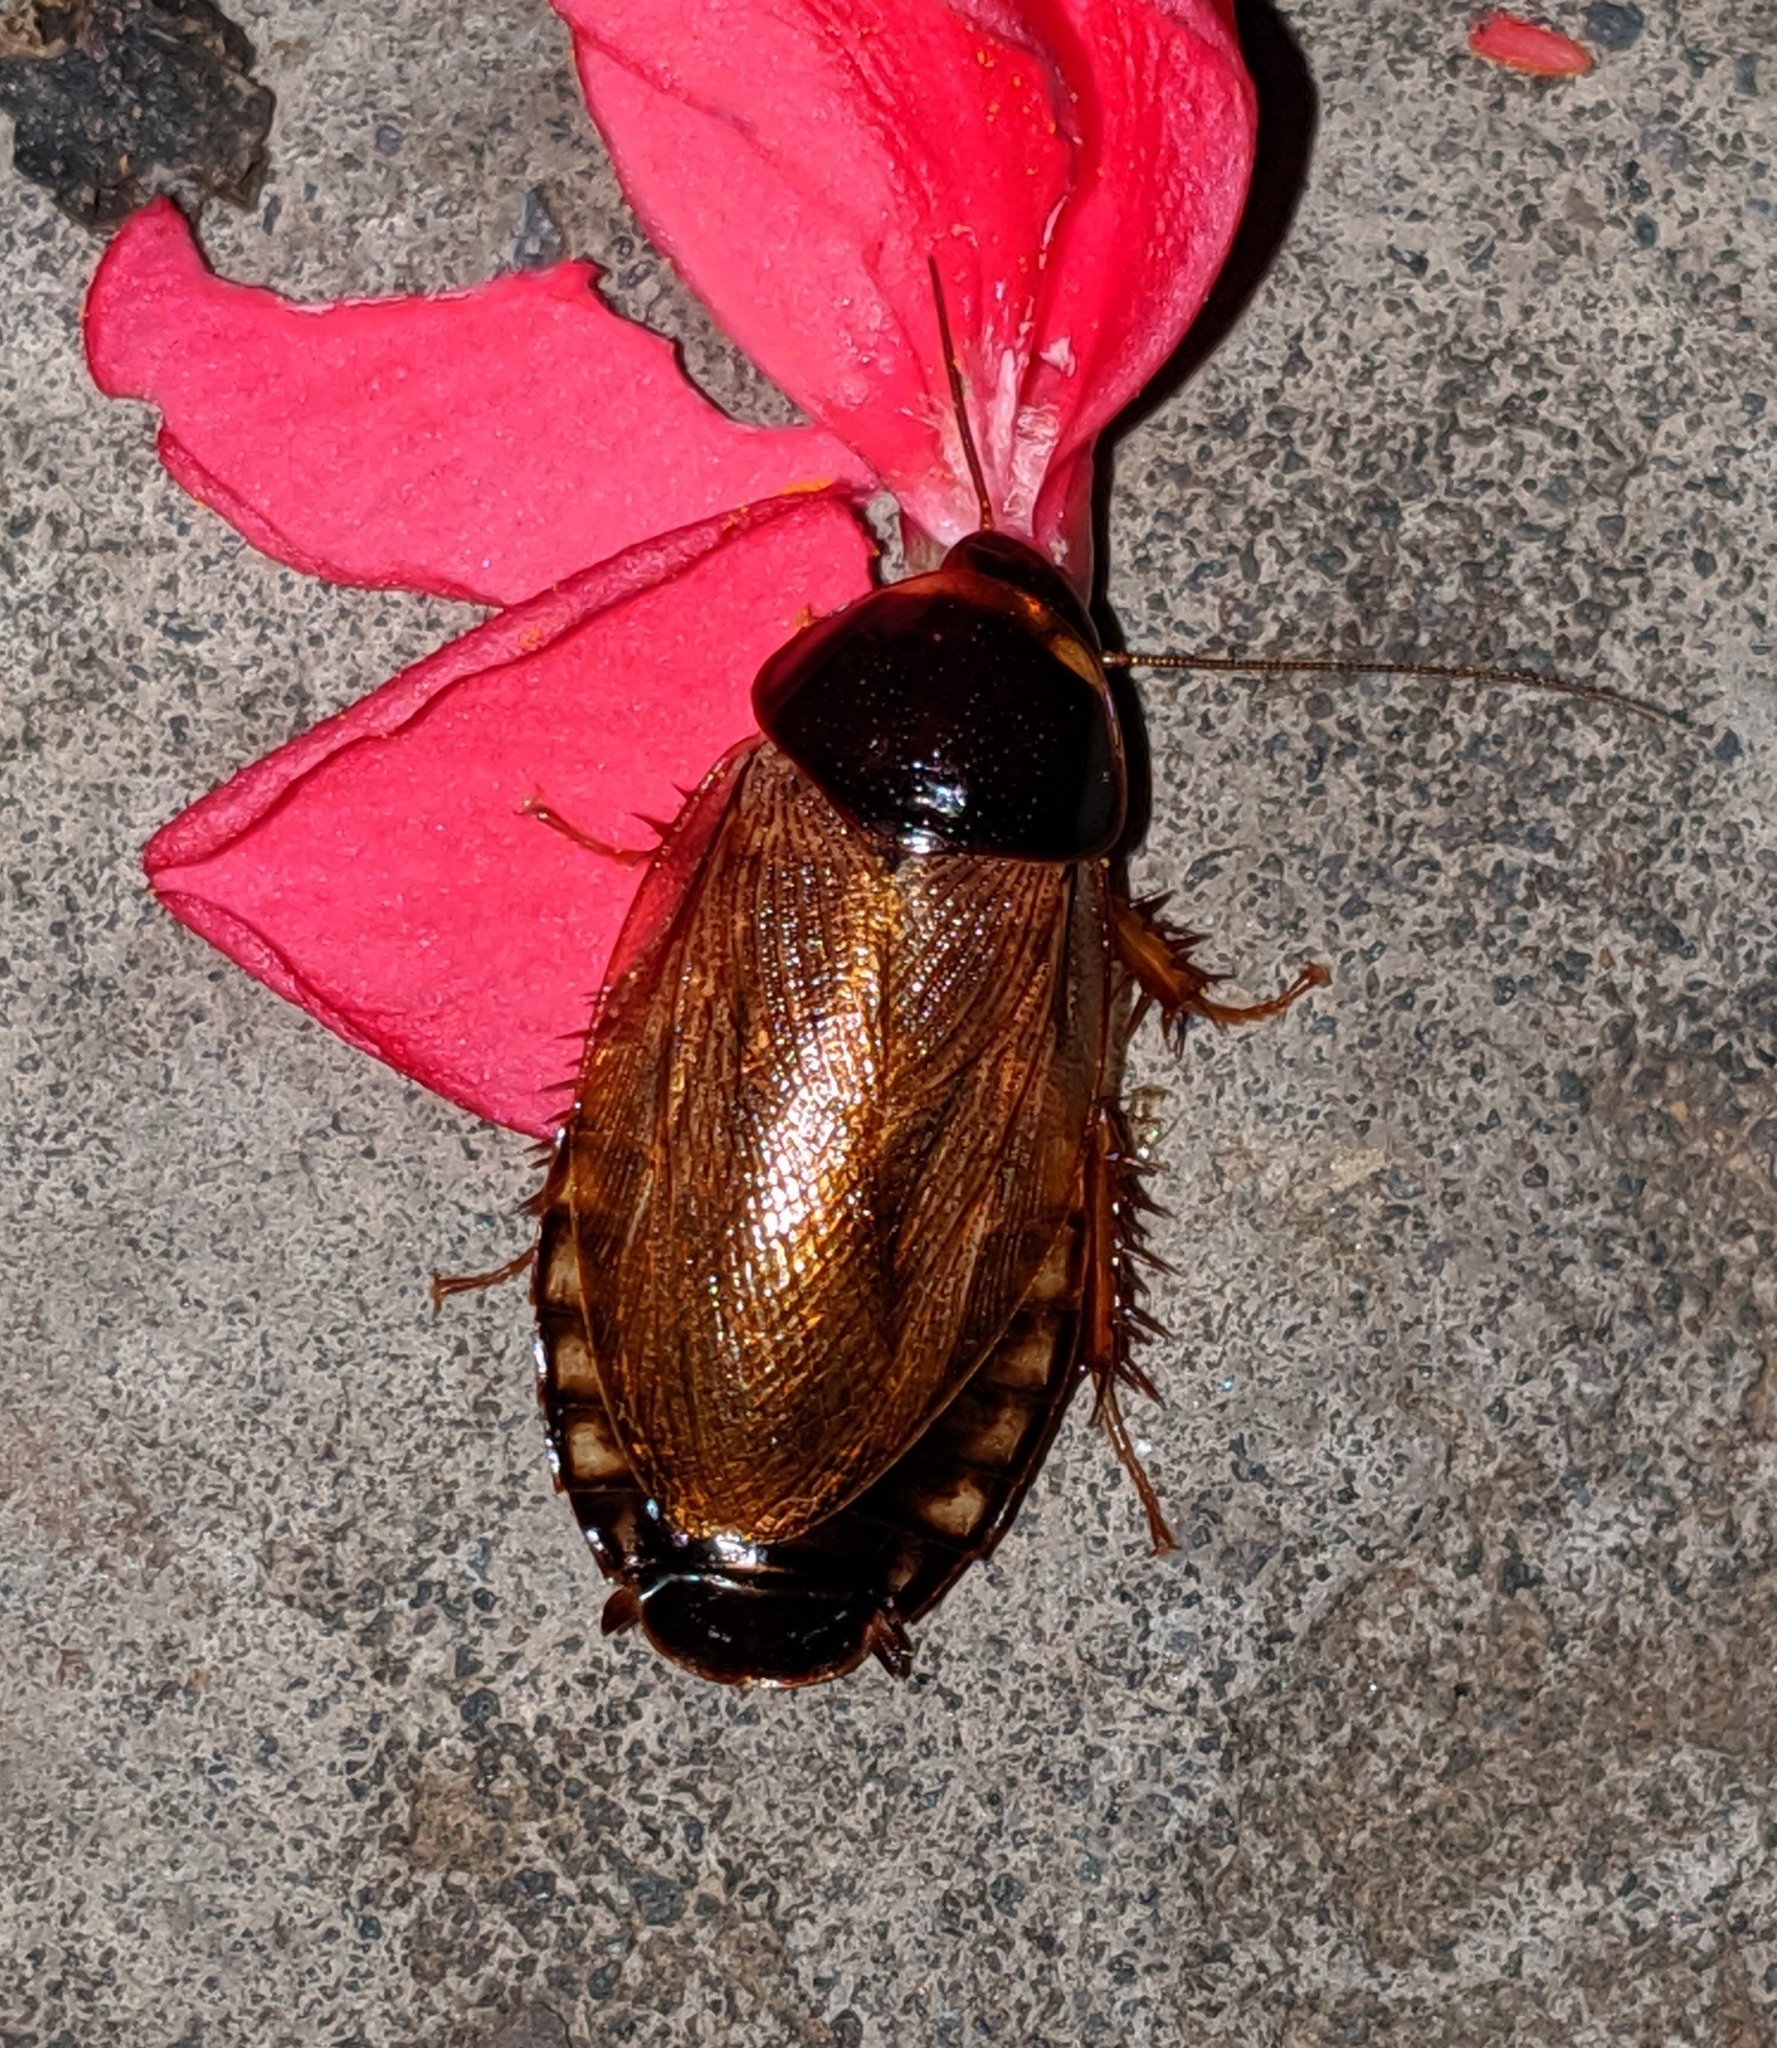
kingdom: Animalia
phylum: Arthropoda
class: Insecta
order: Blattodea
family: Blaberidae
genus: Pycnoscelus
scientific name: Pycnoscelus surinamensis
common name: Surinam cockroach
